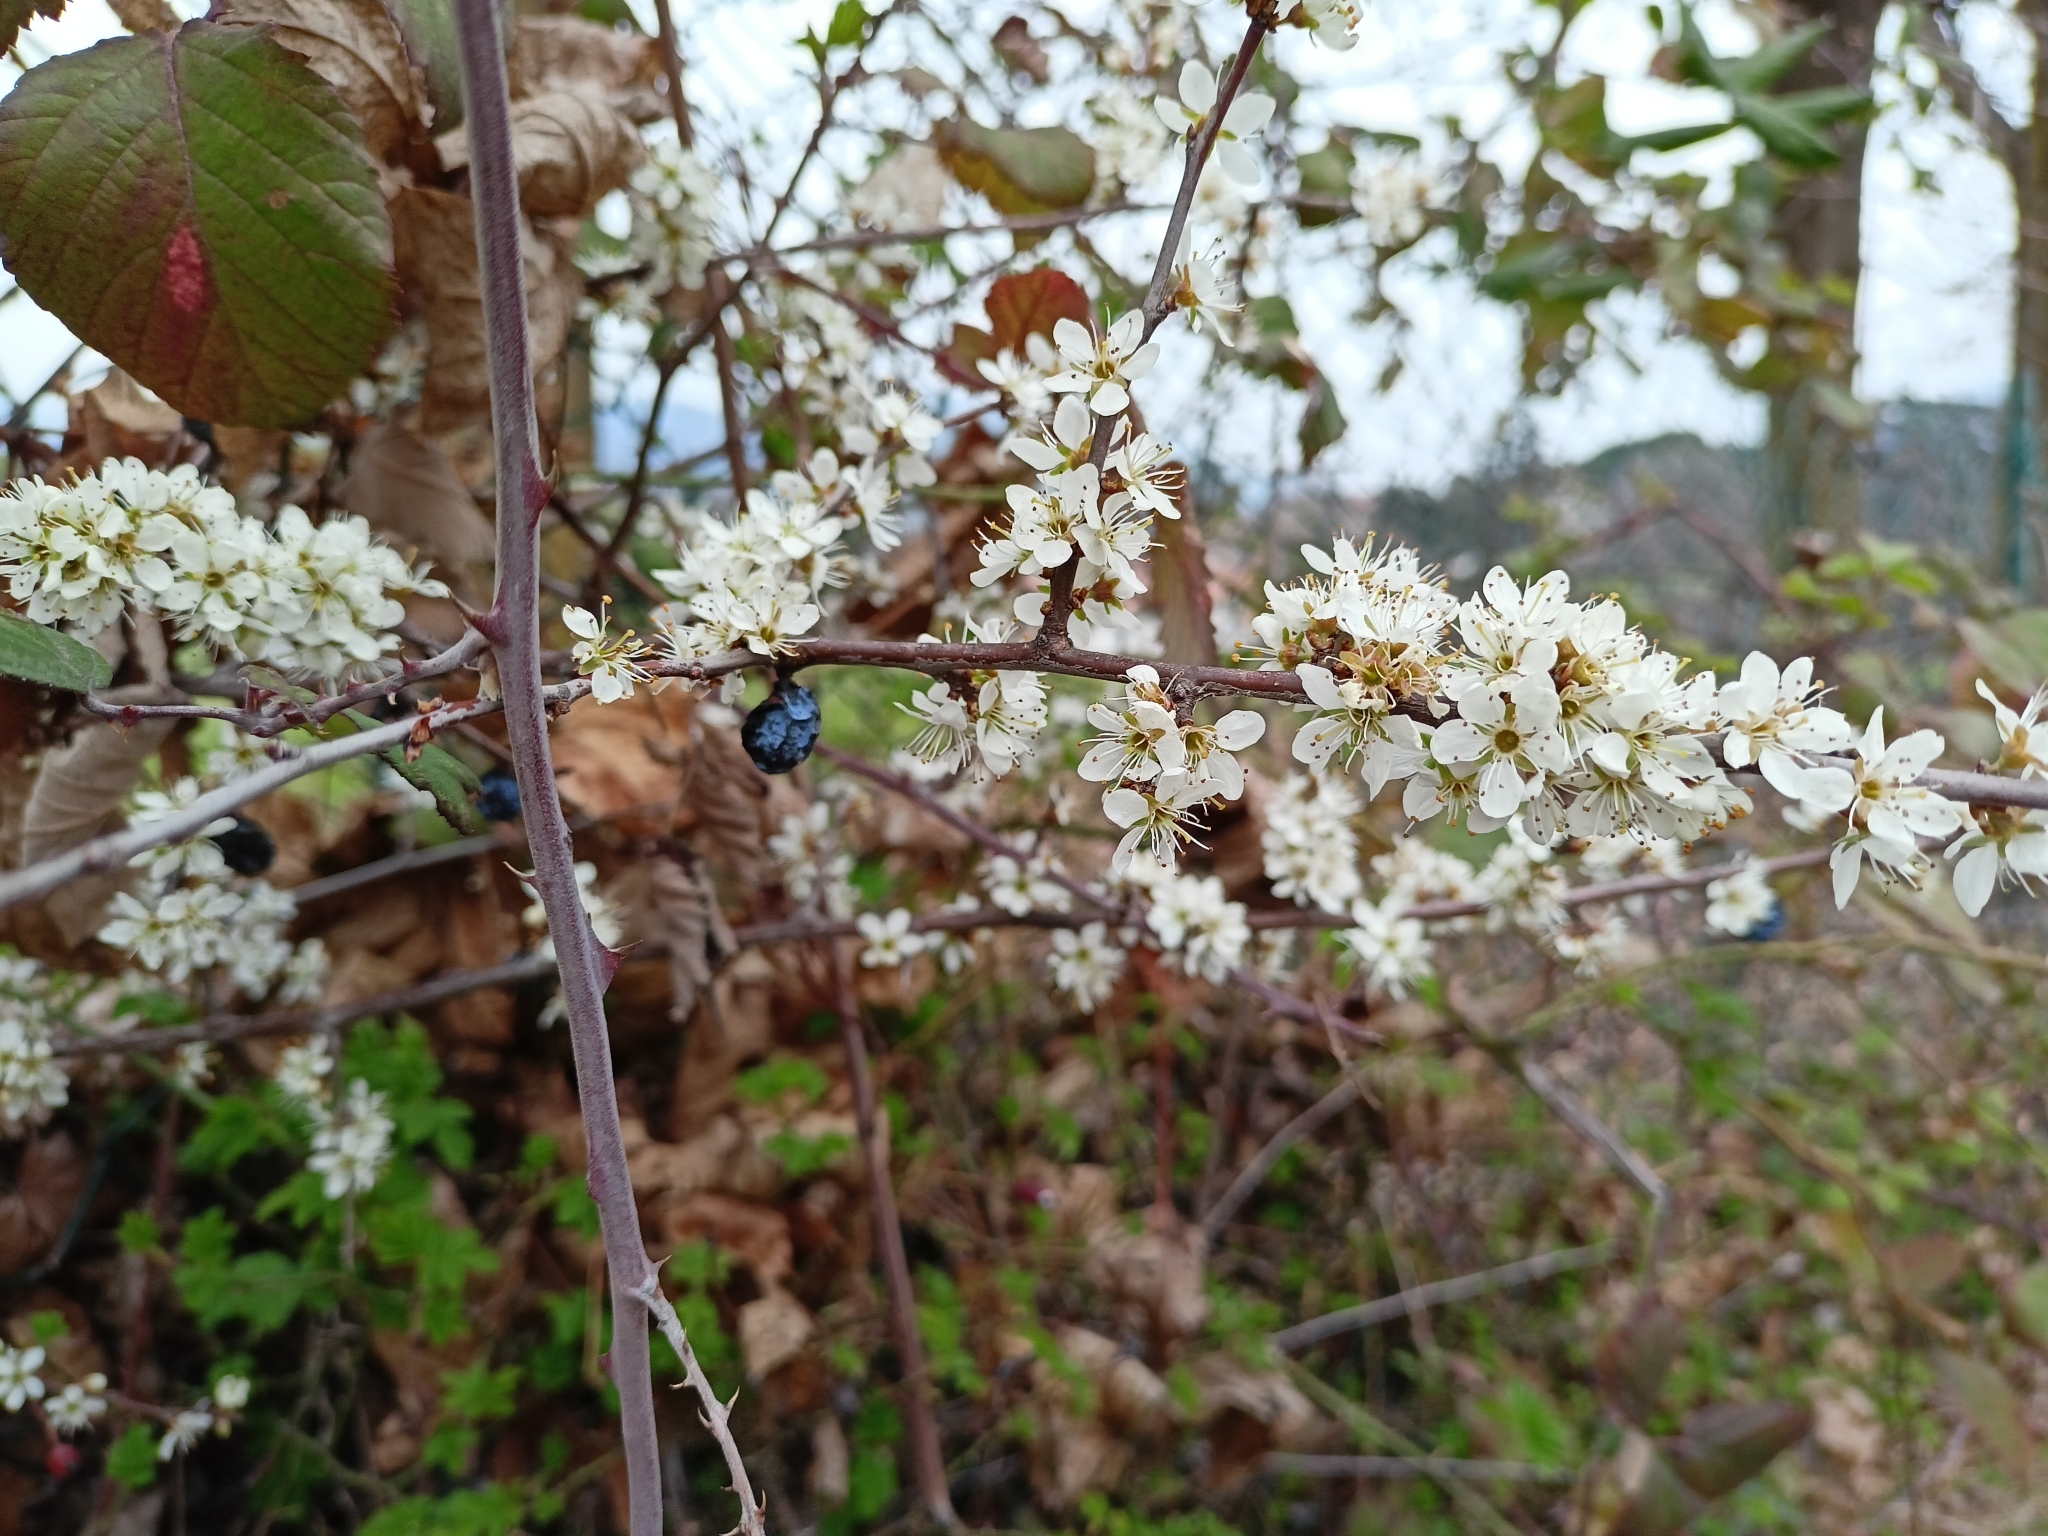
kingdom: Plantae
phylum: Tracheophyta
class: Magnoliopsida
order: Rosales
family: Rosaceae
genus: Prunus
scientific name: Prunus spinosa
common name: Blackthorn
